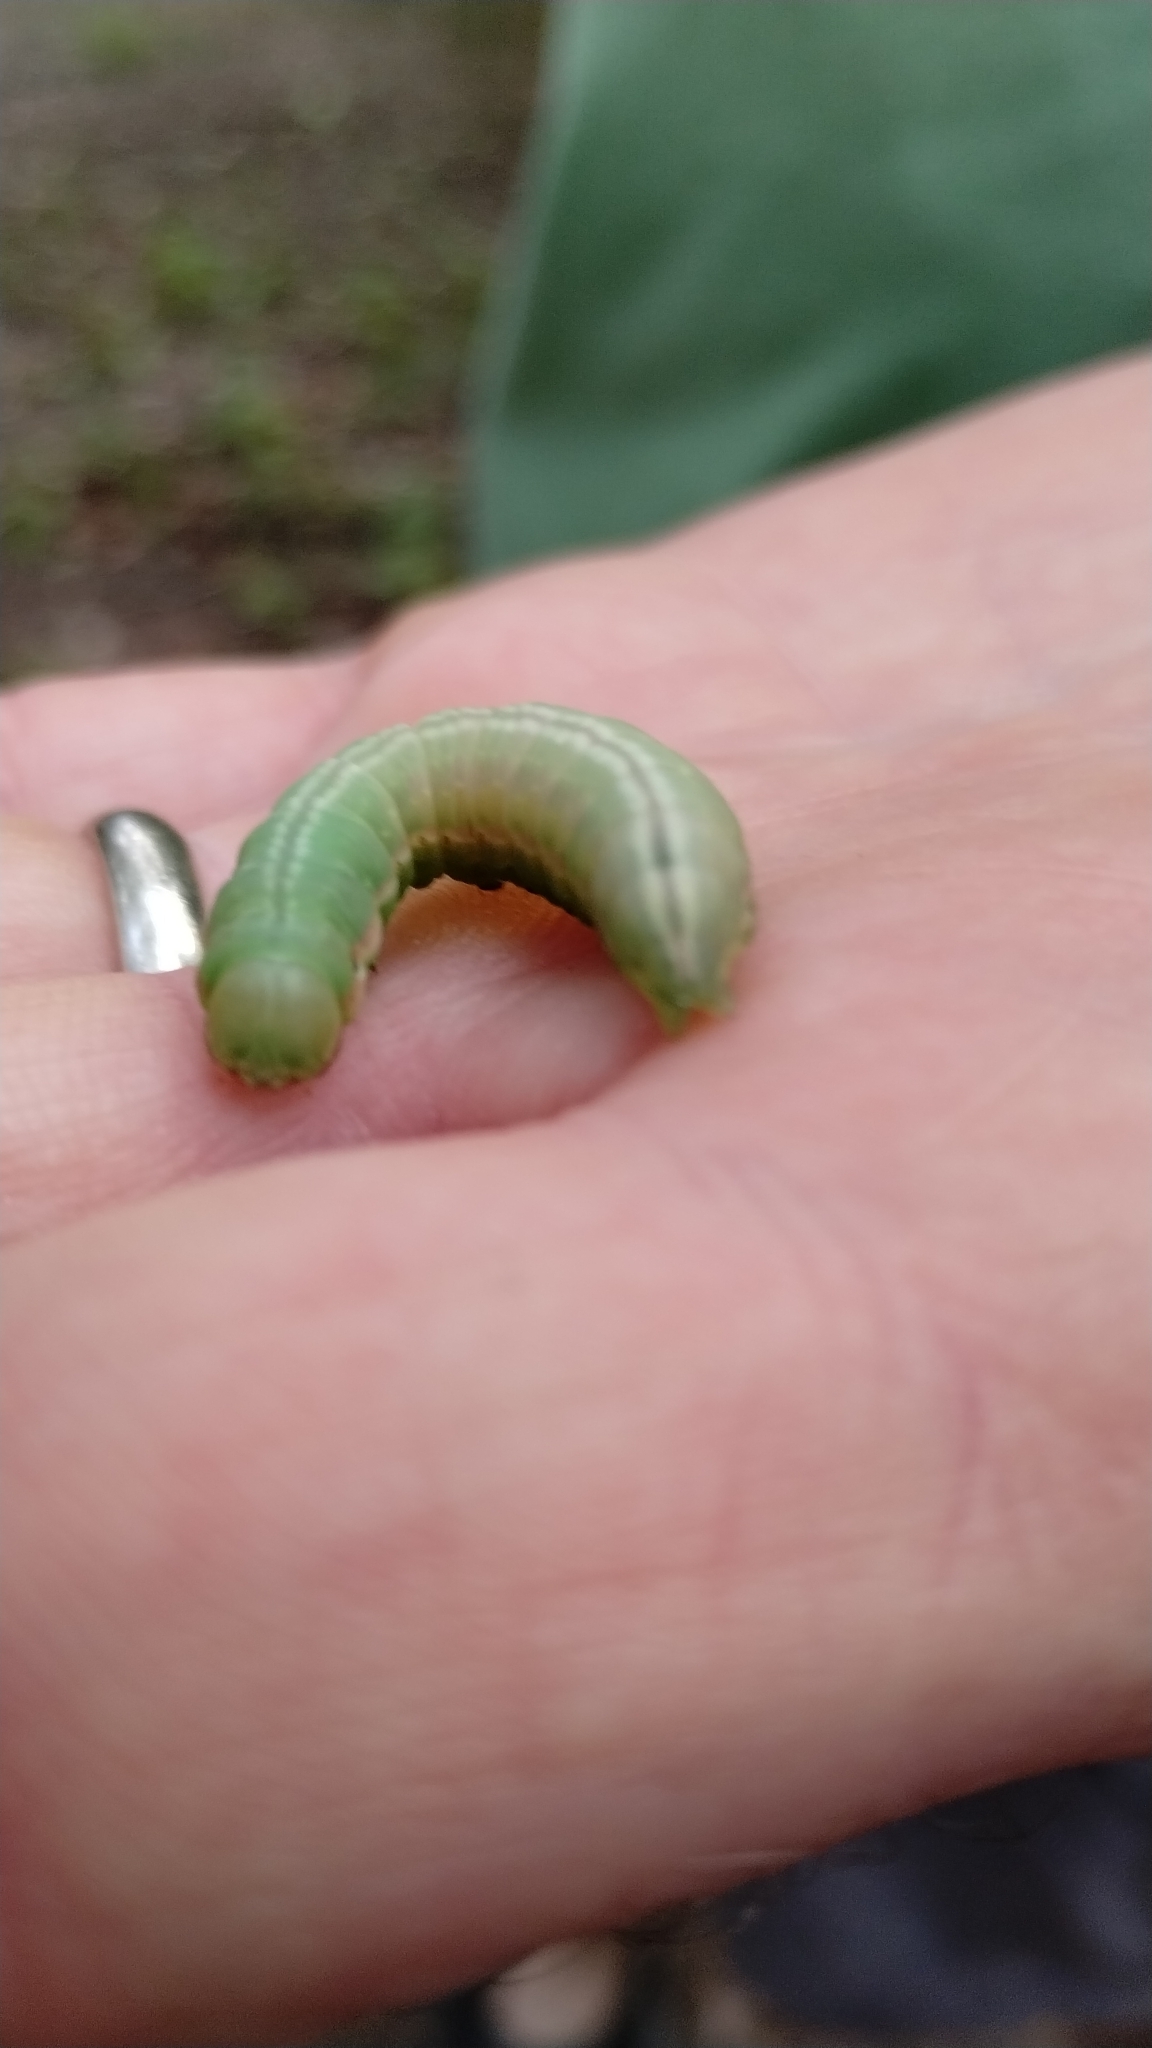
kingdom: Animalia
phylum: Arthropoda
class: Insecta
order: Lepidoptera
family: Notodontidae
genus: Peridea
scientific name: Peridea angulosa
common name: Angulose prominent
